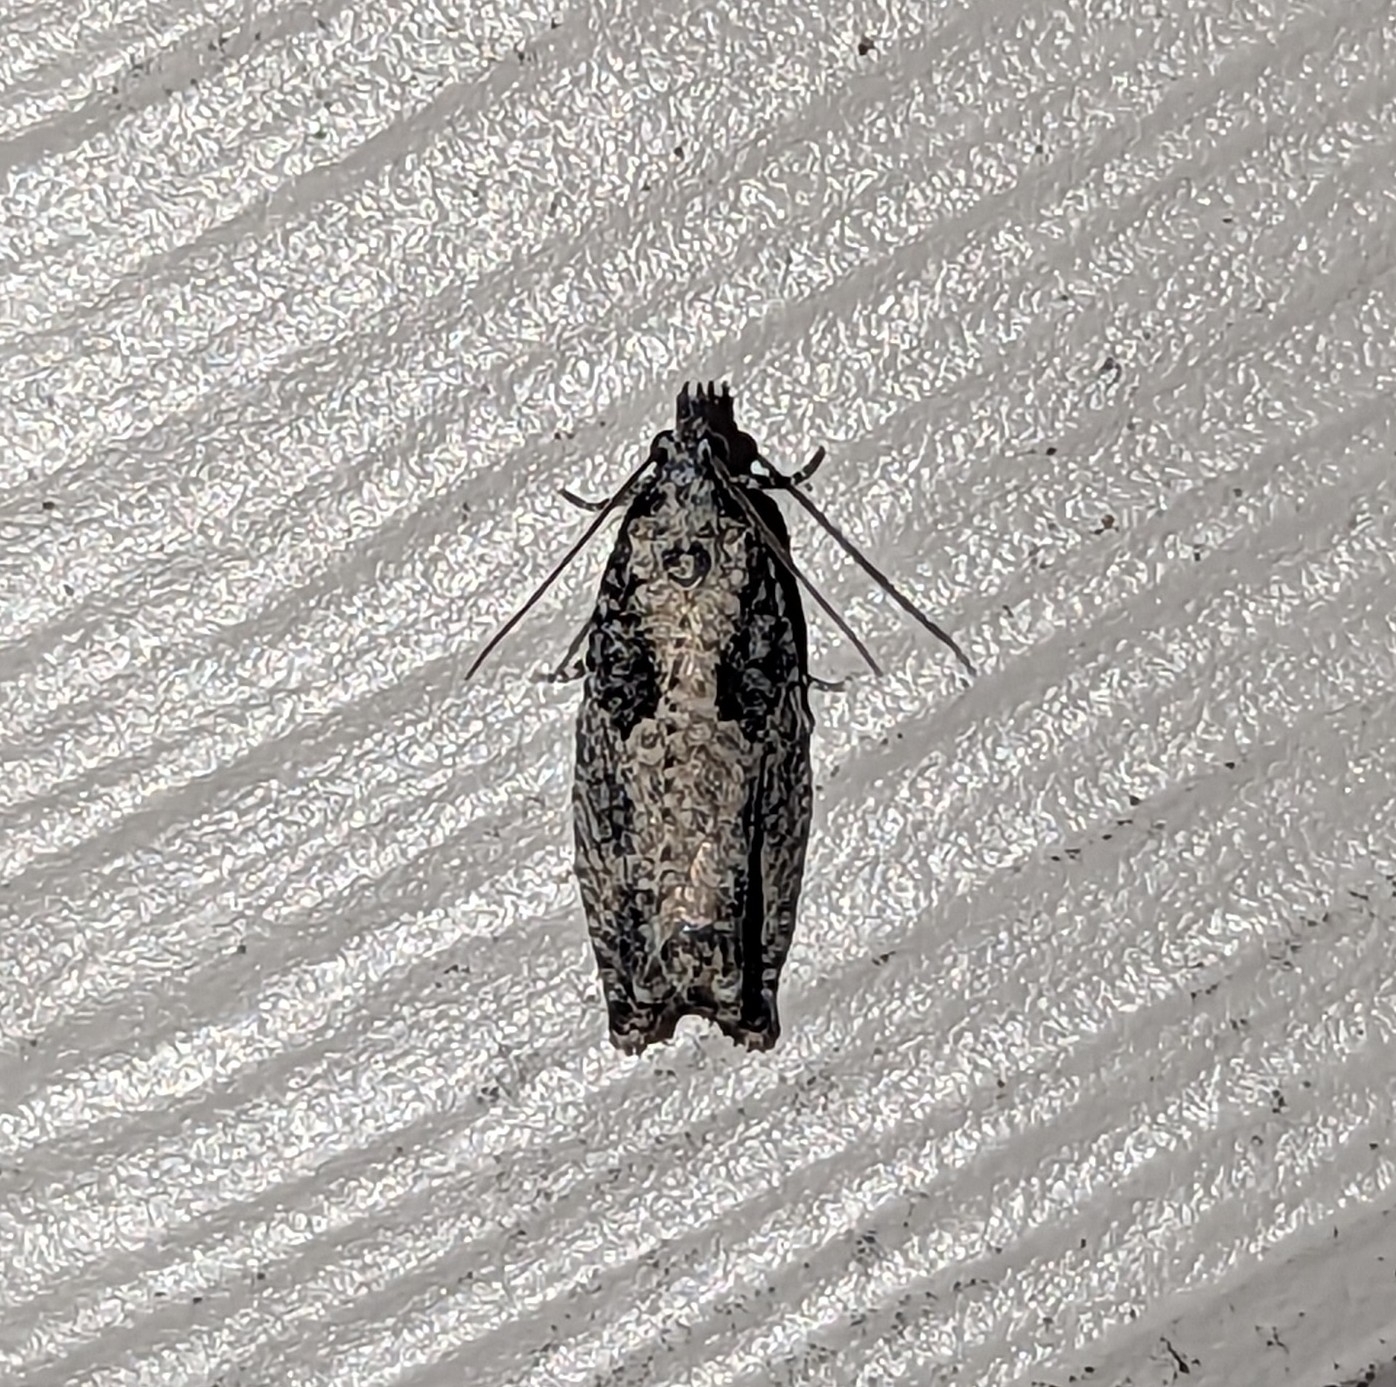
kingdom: Animalia
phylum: Arthropoda
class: Insecta
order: Lepidoptera
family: Tortricidae
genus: Epinotia
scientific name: Epinotia cinereana
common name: Grey aspen bell
